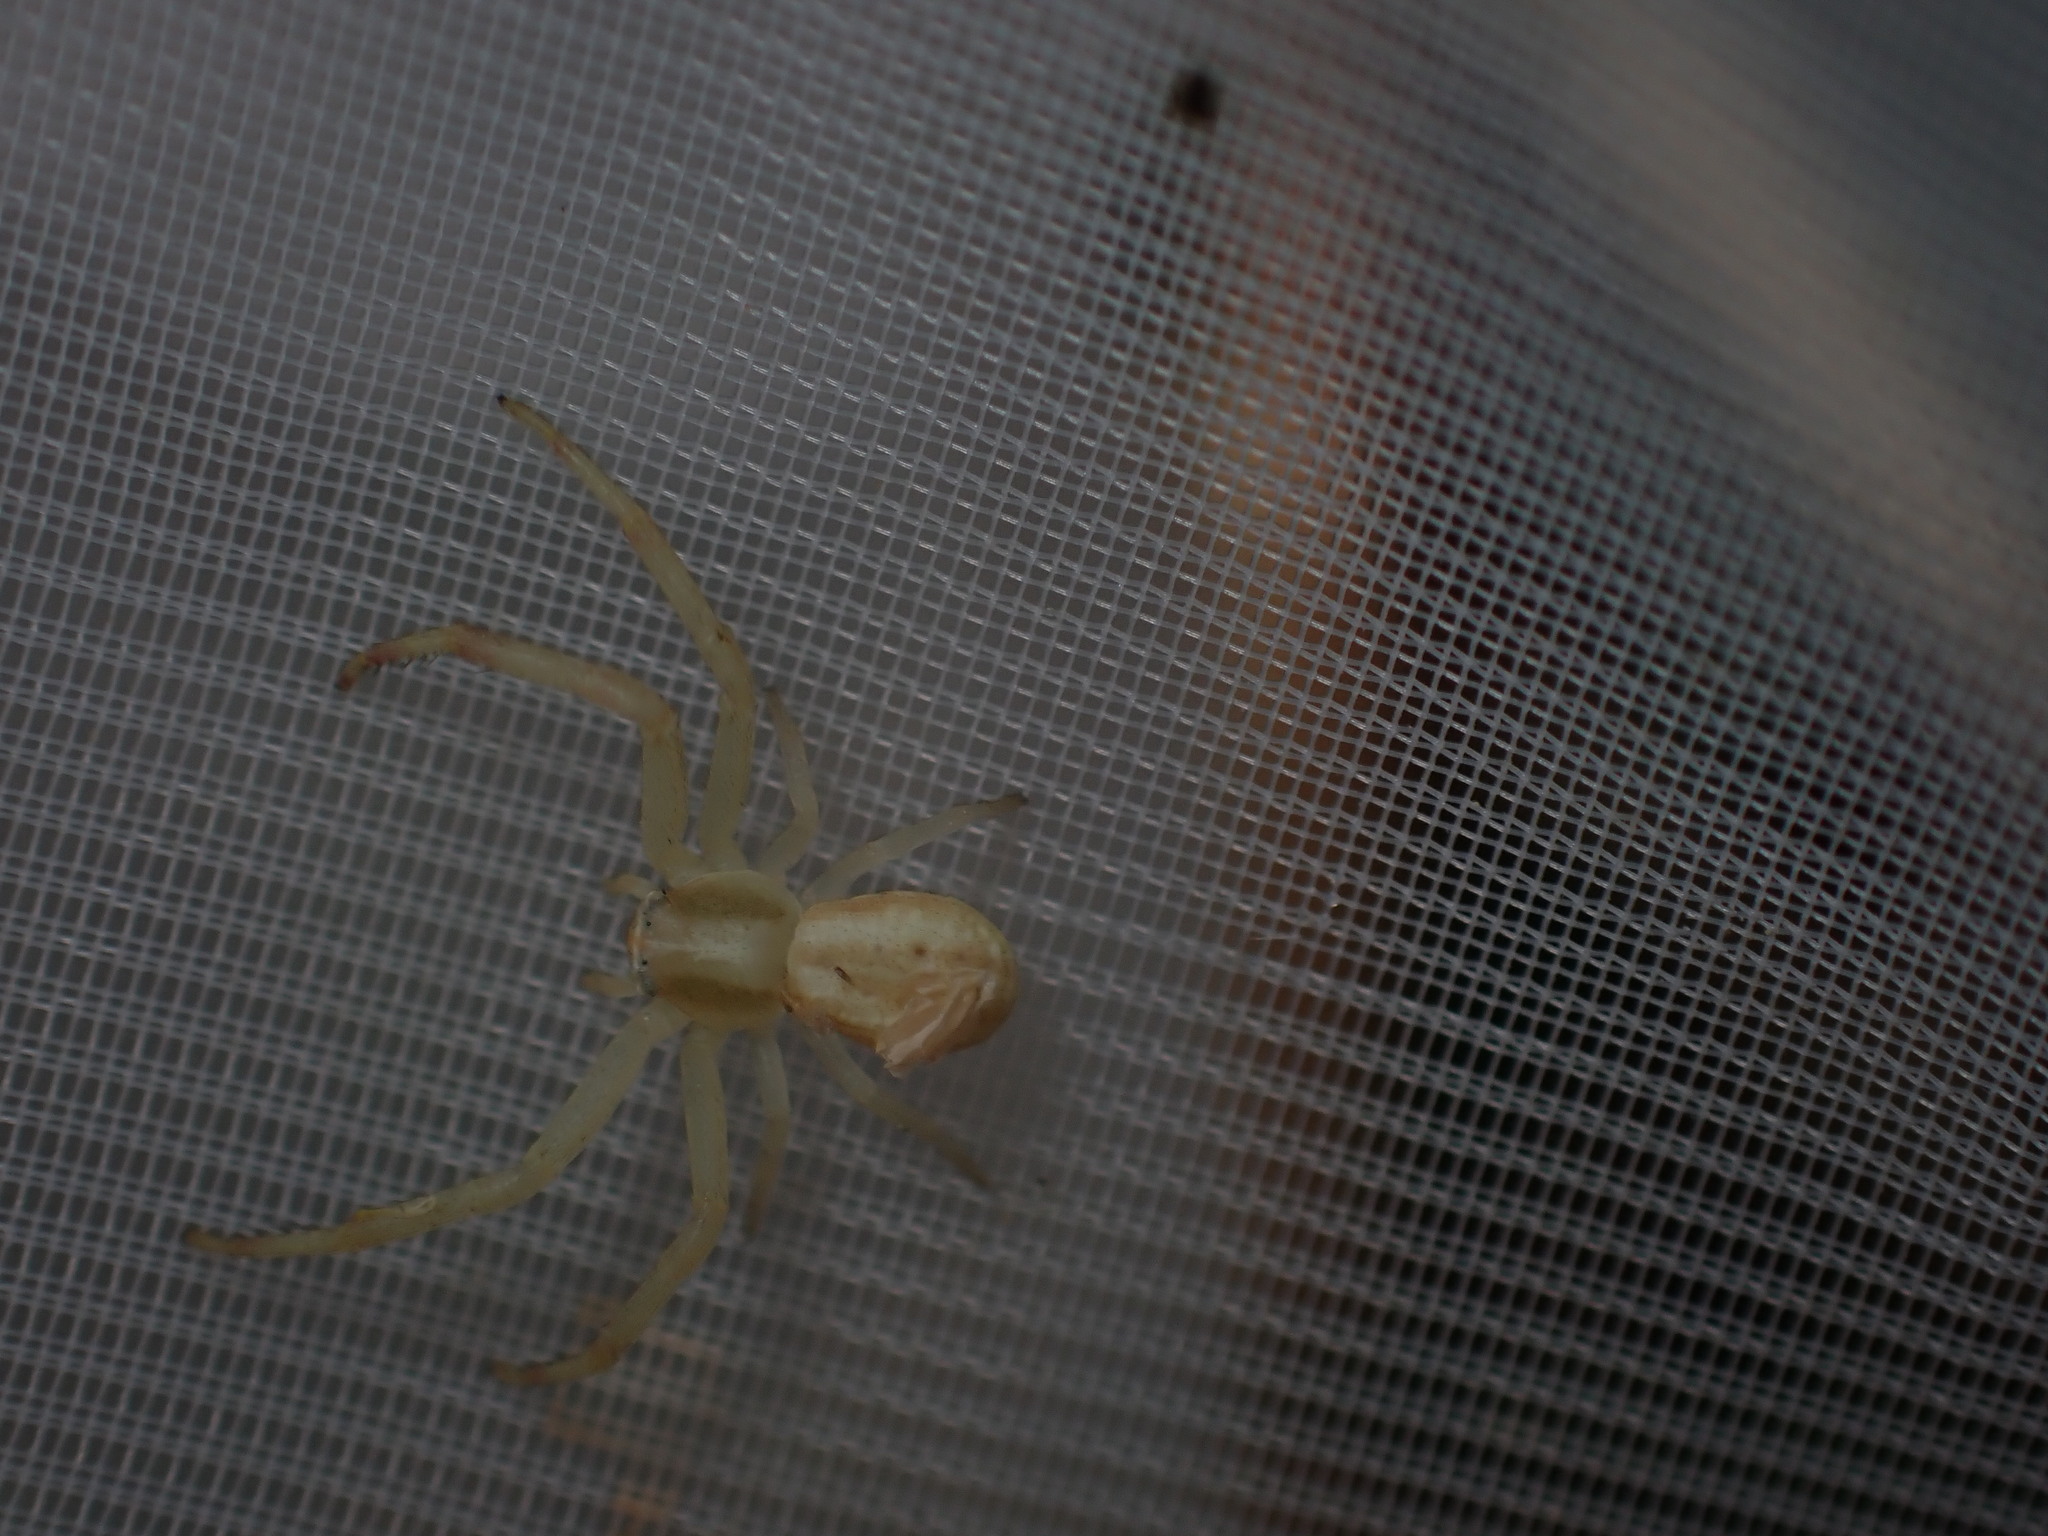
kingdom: Animalia
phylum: Arthropoda
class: Arachnida
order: Araneae
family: Thomisidae
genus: Runcinia
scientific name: Runcinia grammica
